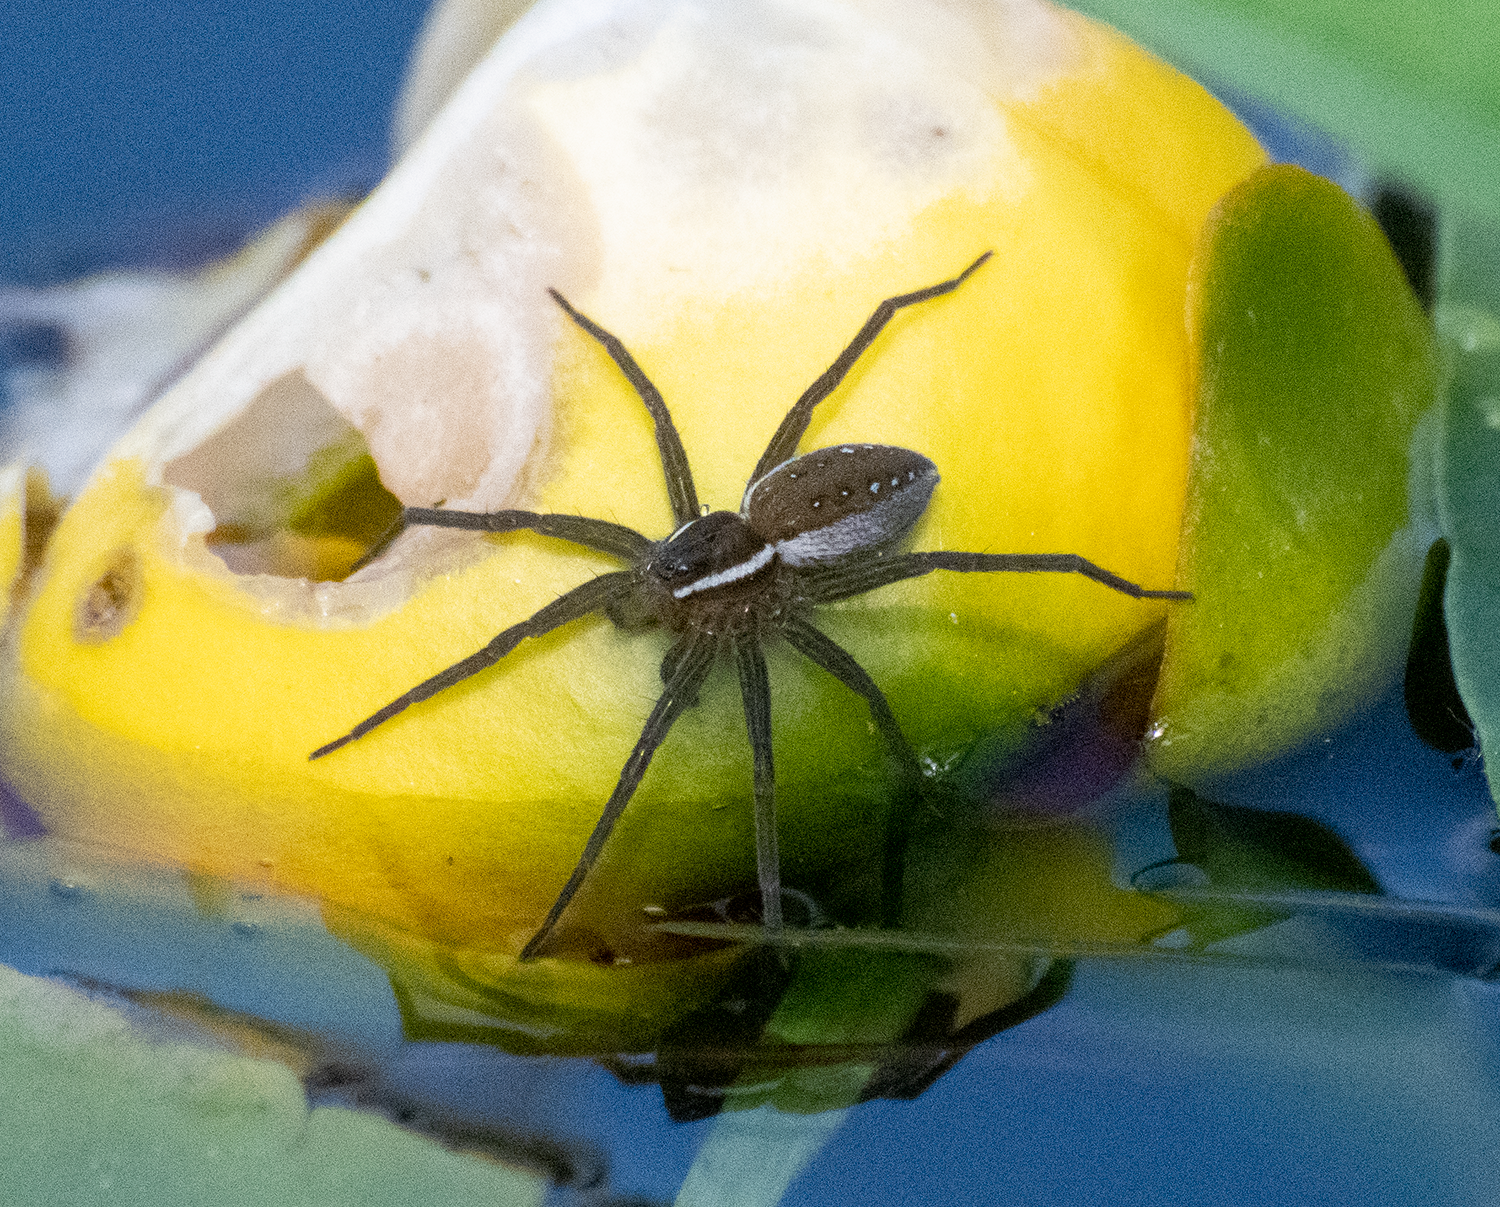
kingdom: Animalia
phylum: Arthropoda
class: Arachnida
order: Araneae
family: Pisauridae
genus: Dolomedes
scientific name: Dolomedes triton
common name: Six-spotted fishing spider
